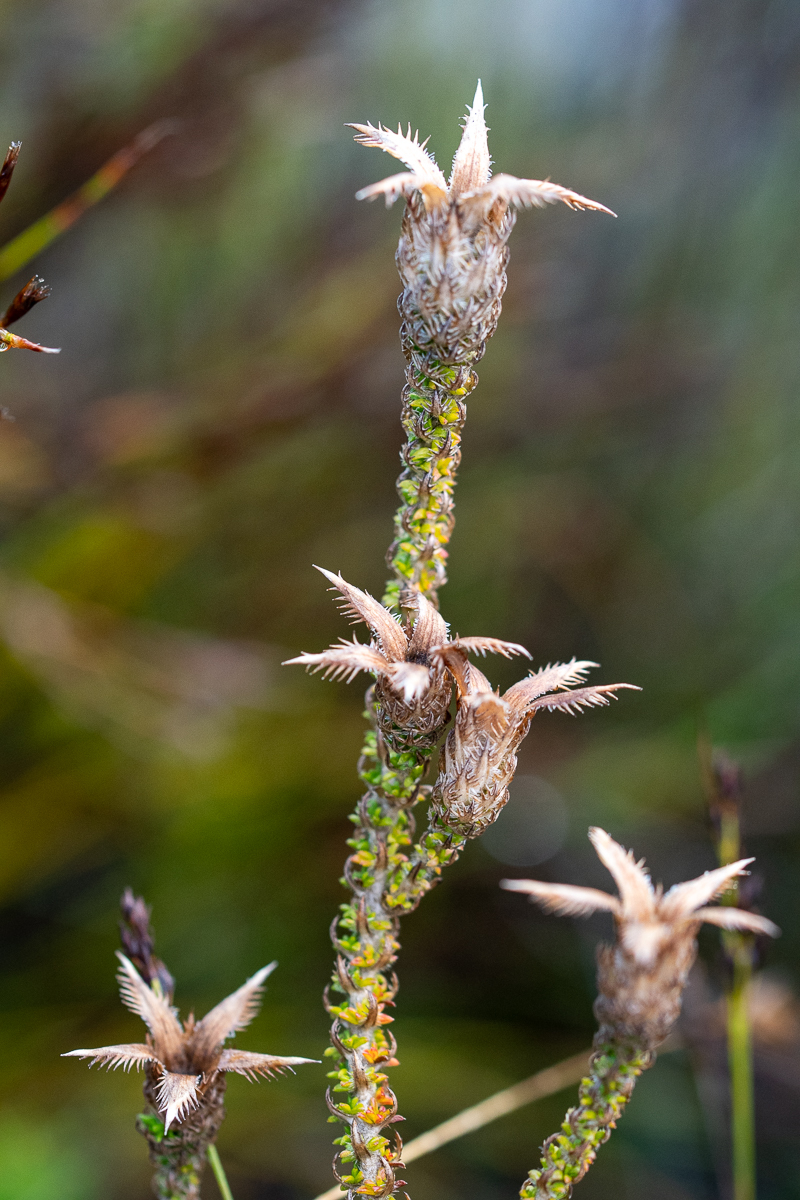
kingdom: Plantae
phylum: Tracheophyta
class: Magnoliopsida
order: Asterales
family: Campanulaceae
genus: Roella
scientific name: Roella ciliata
